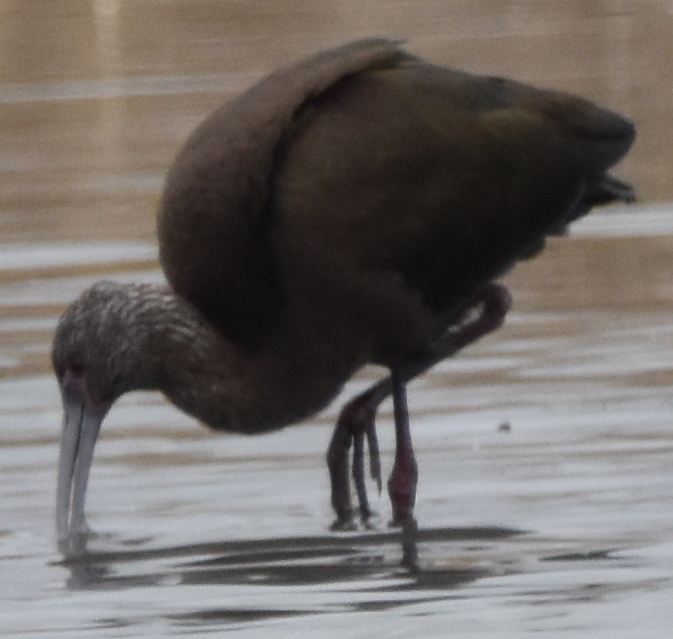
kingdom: Animalia
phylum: Chordata
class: Aves
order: Pelecaniformes
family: Threskiornithidae
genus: Plegadis
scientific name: Plegadis chihi
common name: White-faced ibis
